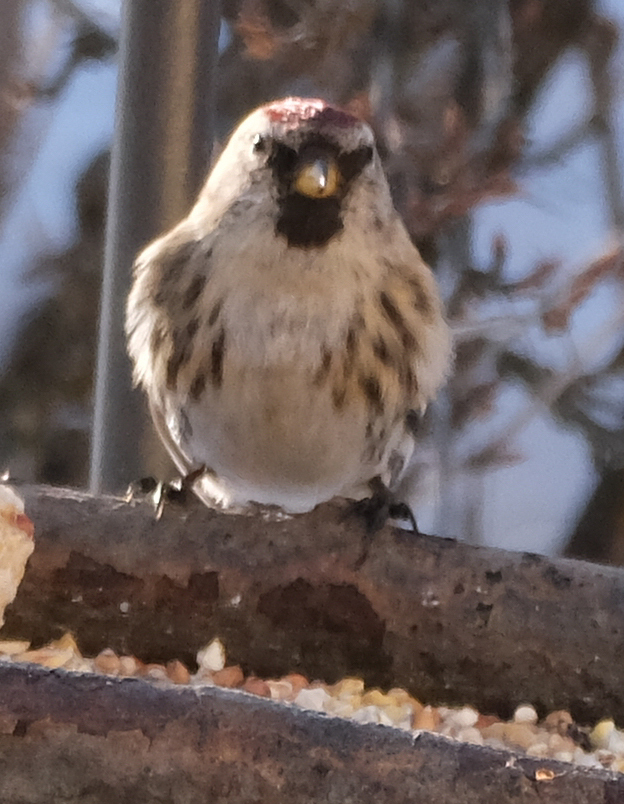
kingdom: Animalia
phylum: Chordata
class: Aves
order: Passeriformes
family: Fringillidae
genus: Acanthis
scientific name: Acanthis flammea
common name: Common redpoll
